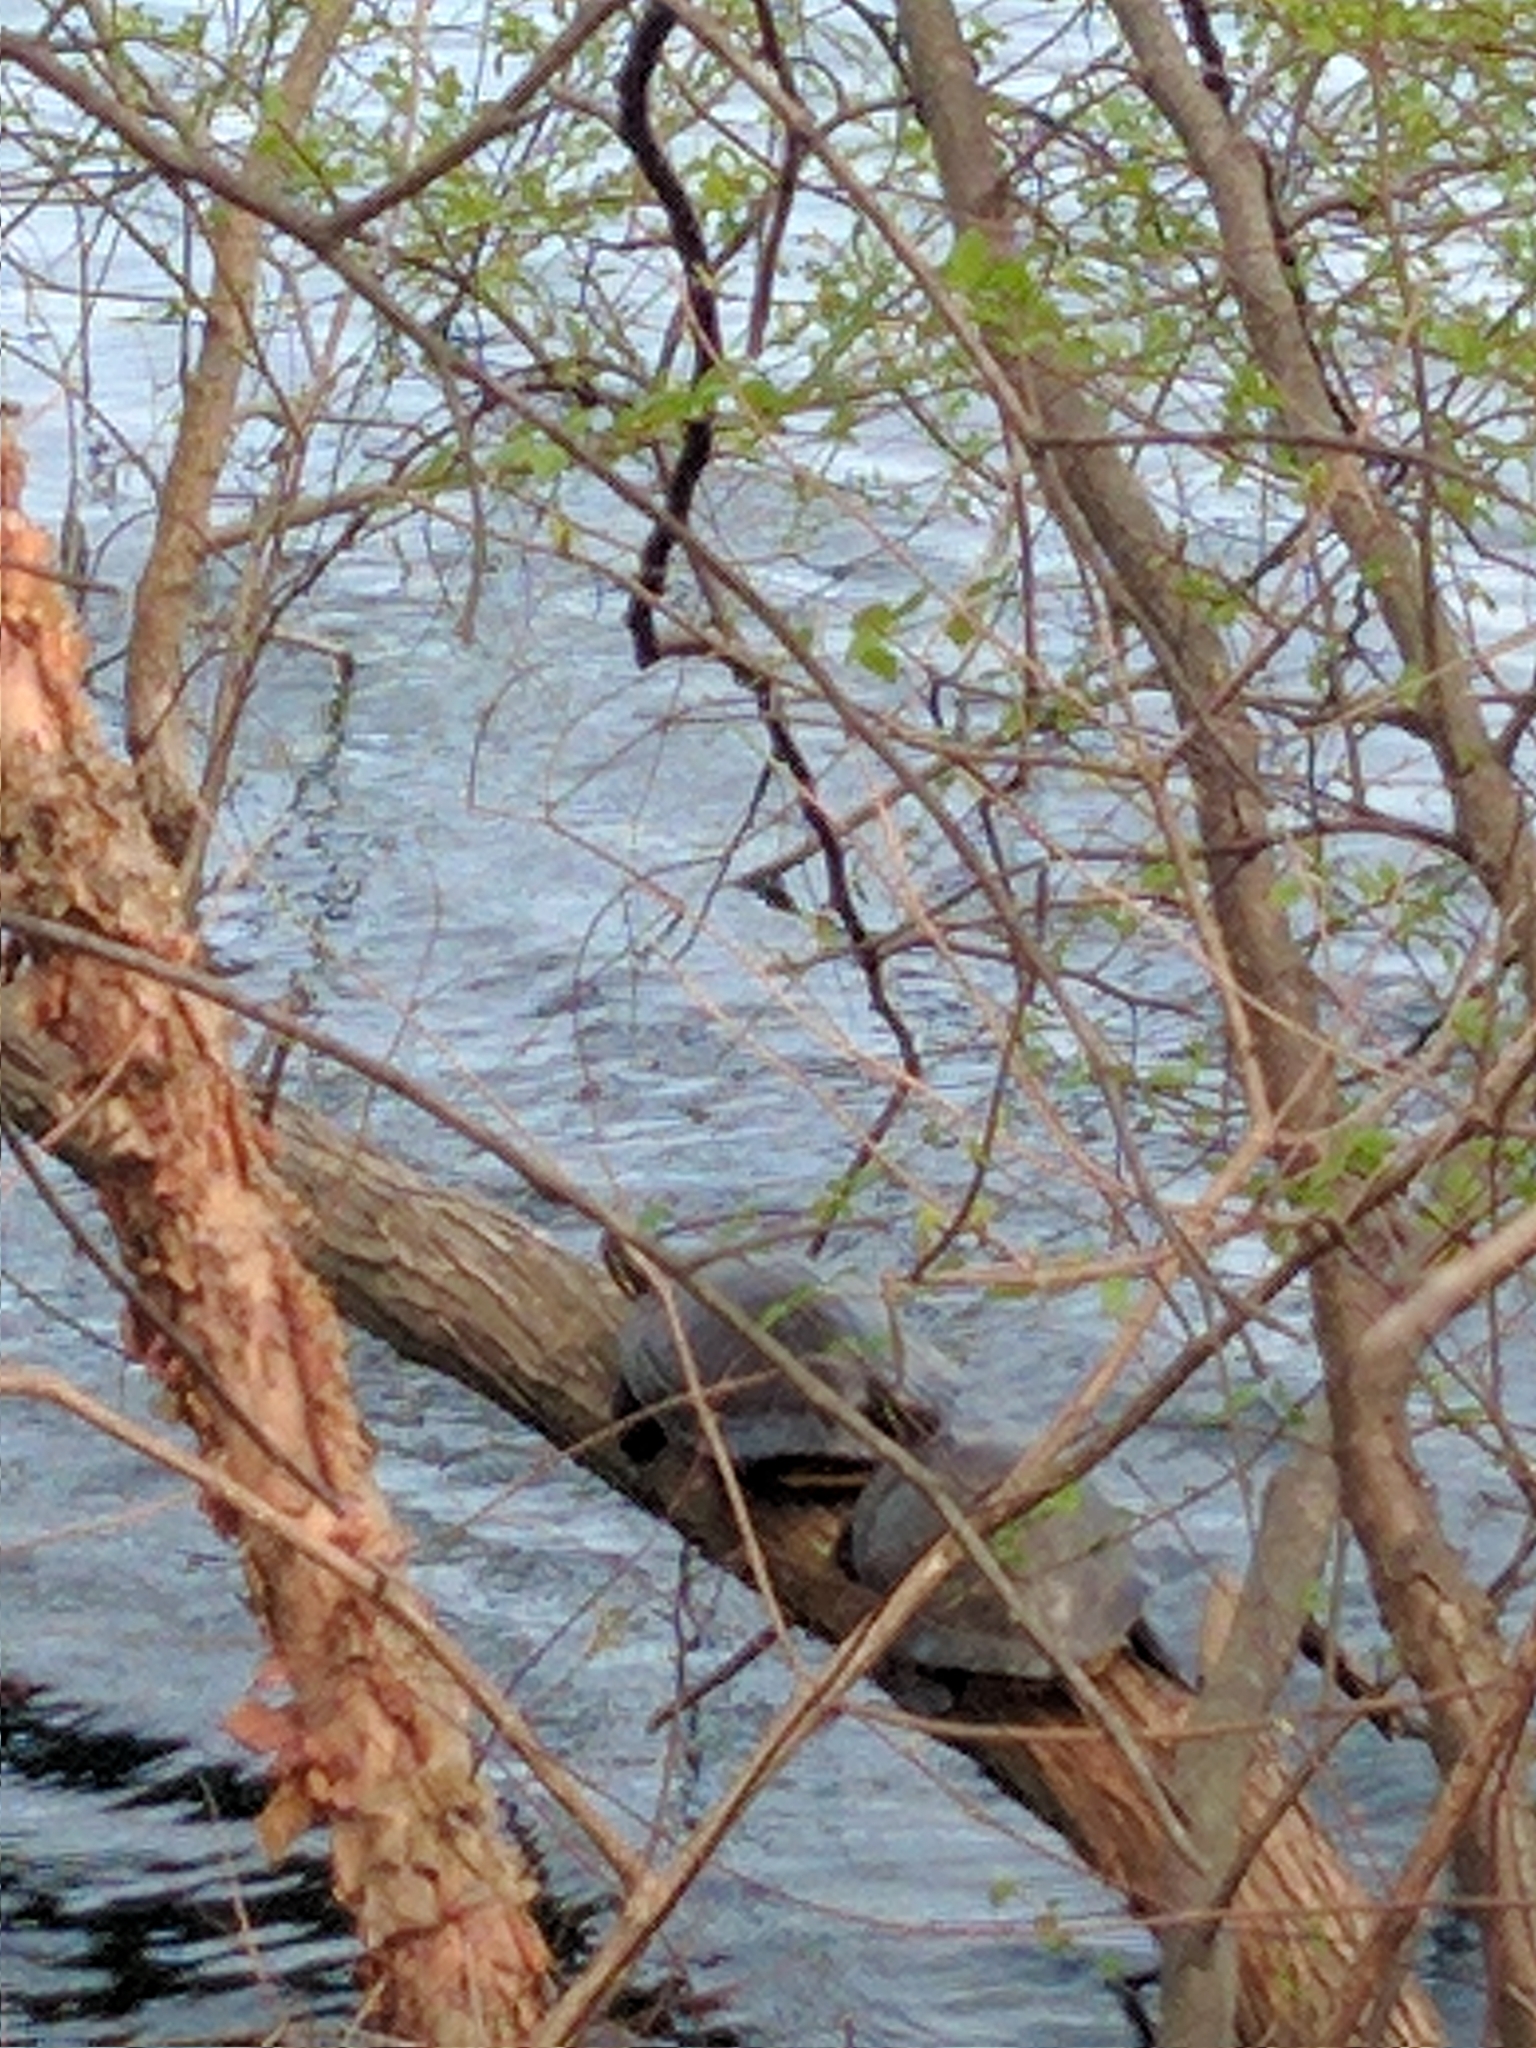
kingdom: Animalia
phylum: Chordata
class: Testudines
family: Emydidae
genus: Trachemys
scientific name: Trachemys scripta
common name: Slider
